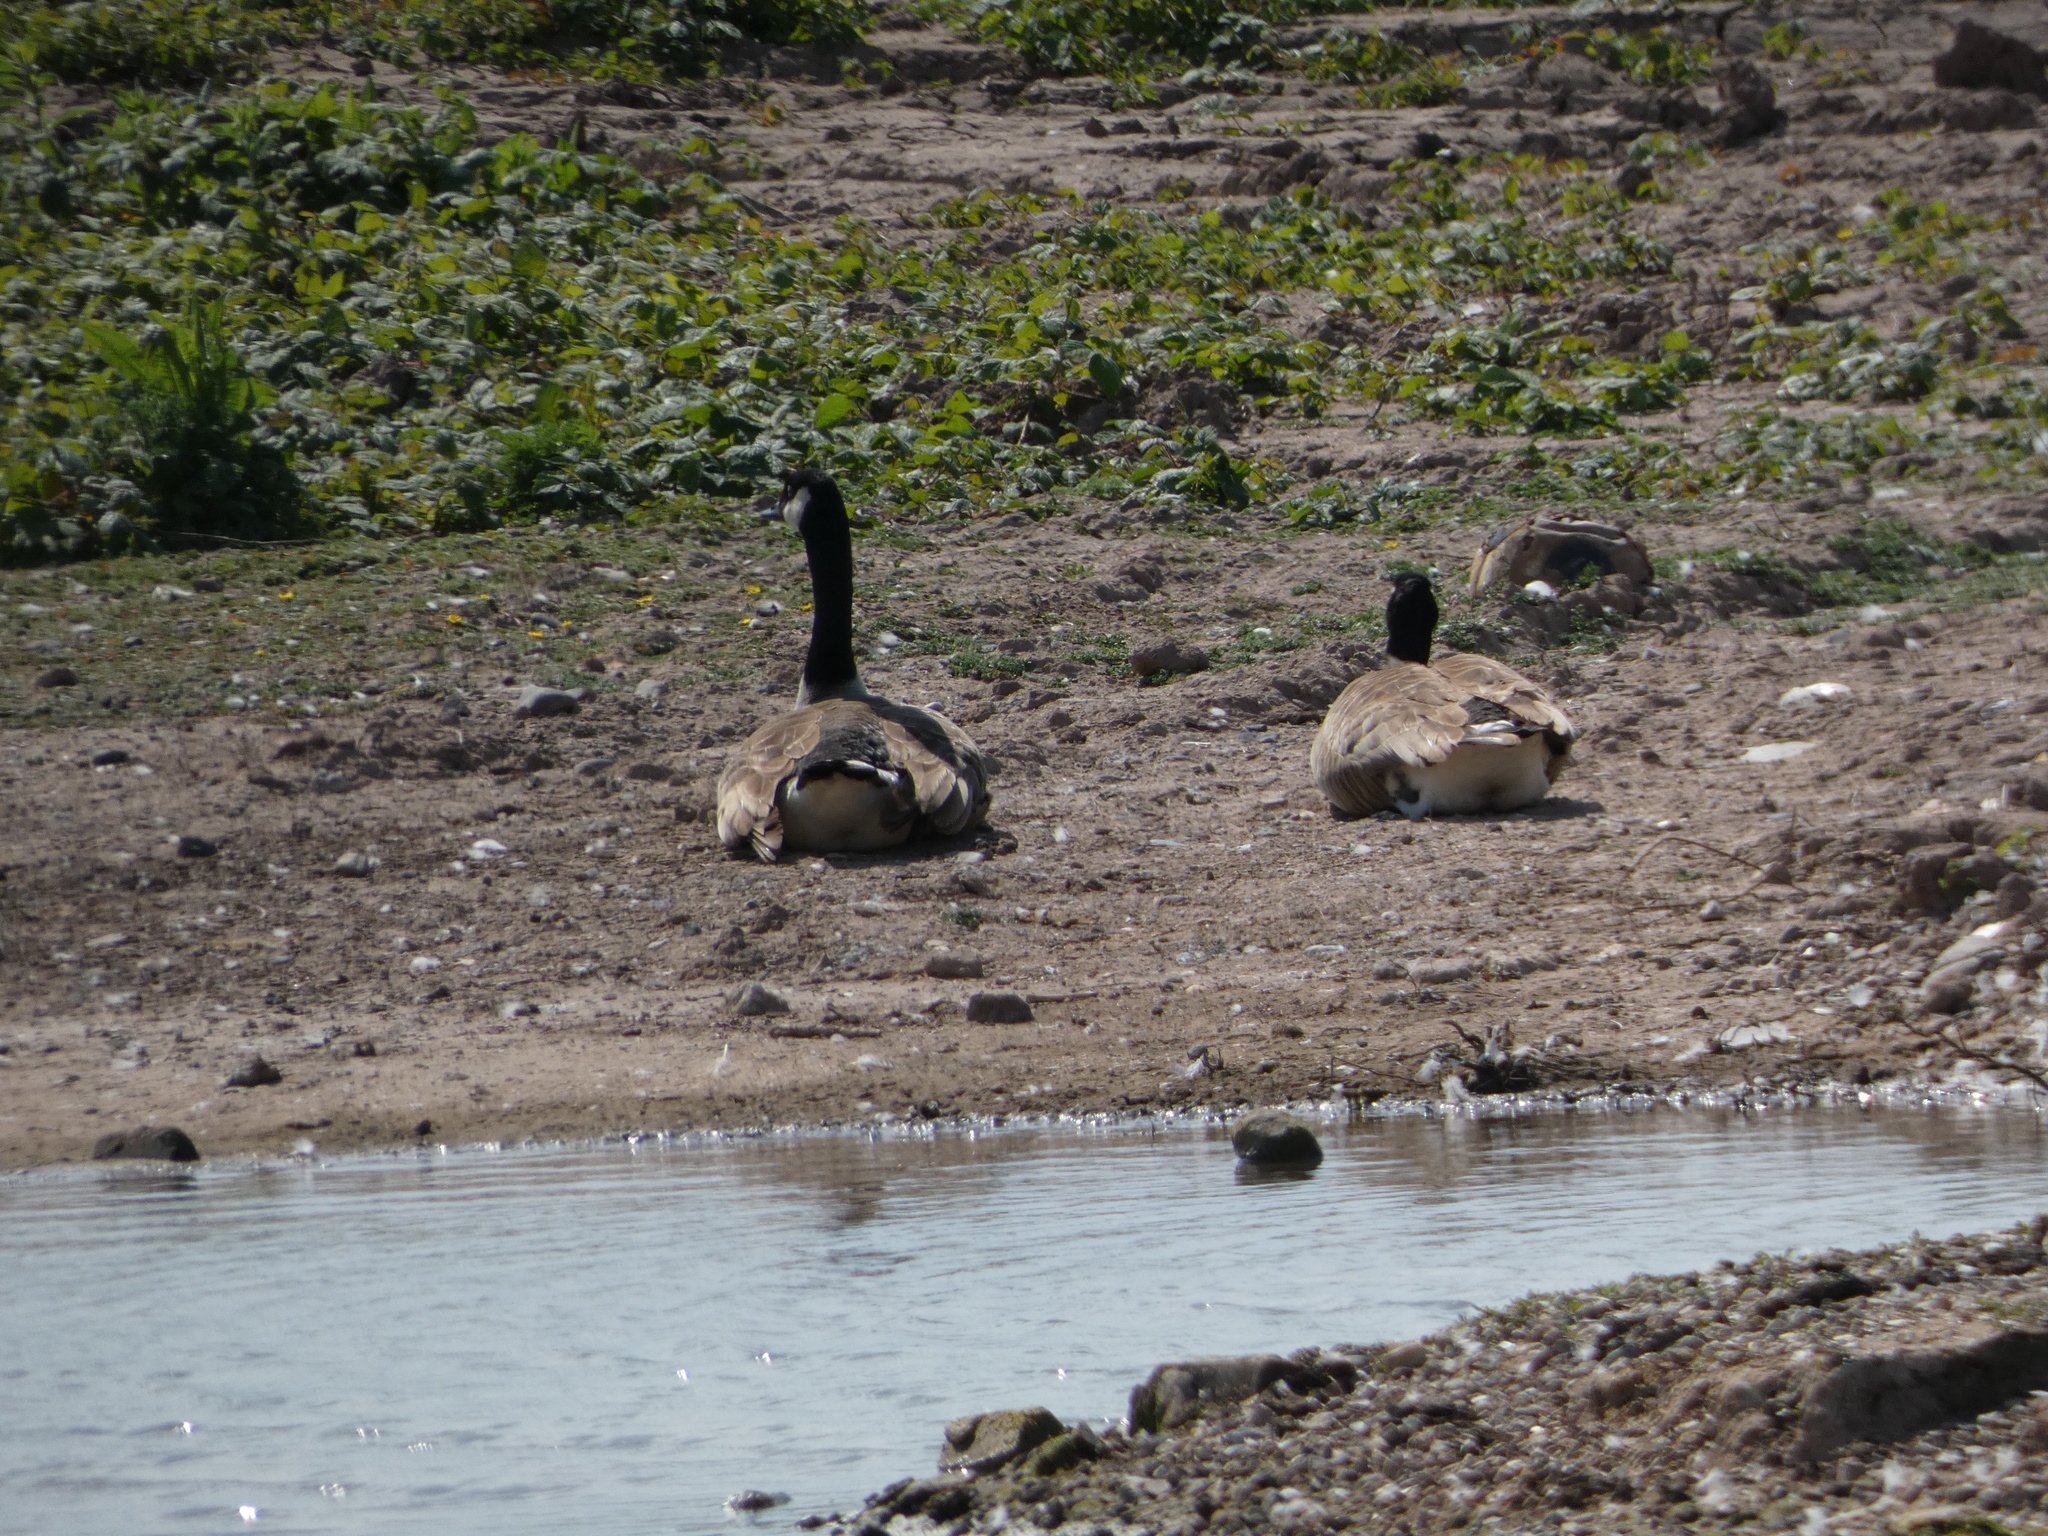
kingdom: Animalia
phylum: Chordata
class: Aves
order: Anseriformes
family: Anatidae
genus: Branta
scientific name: Branta canadensis
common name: Canada goose
